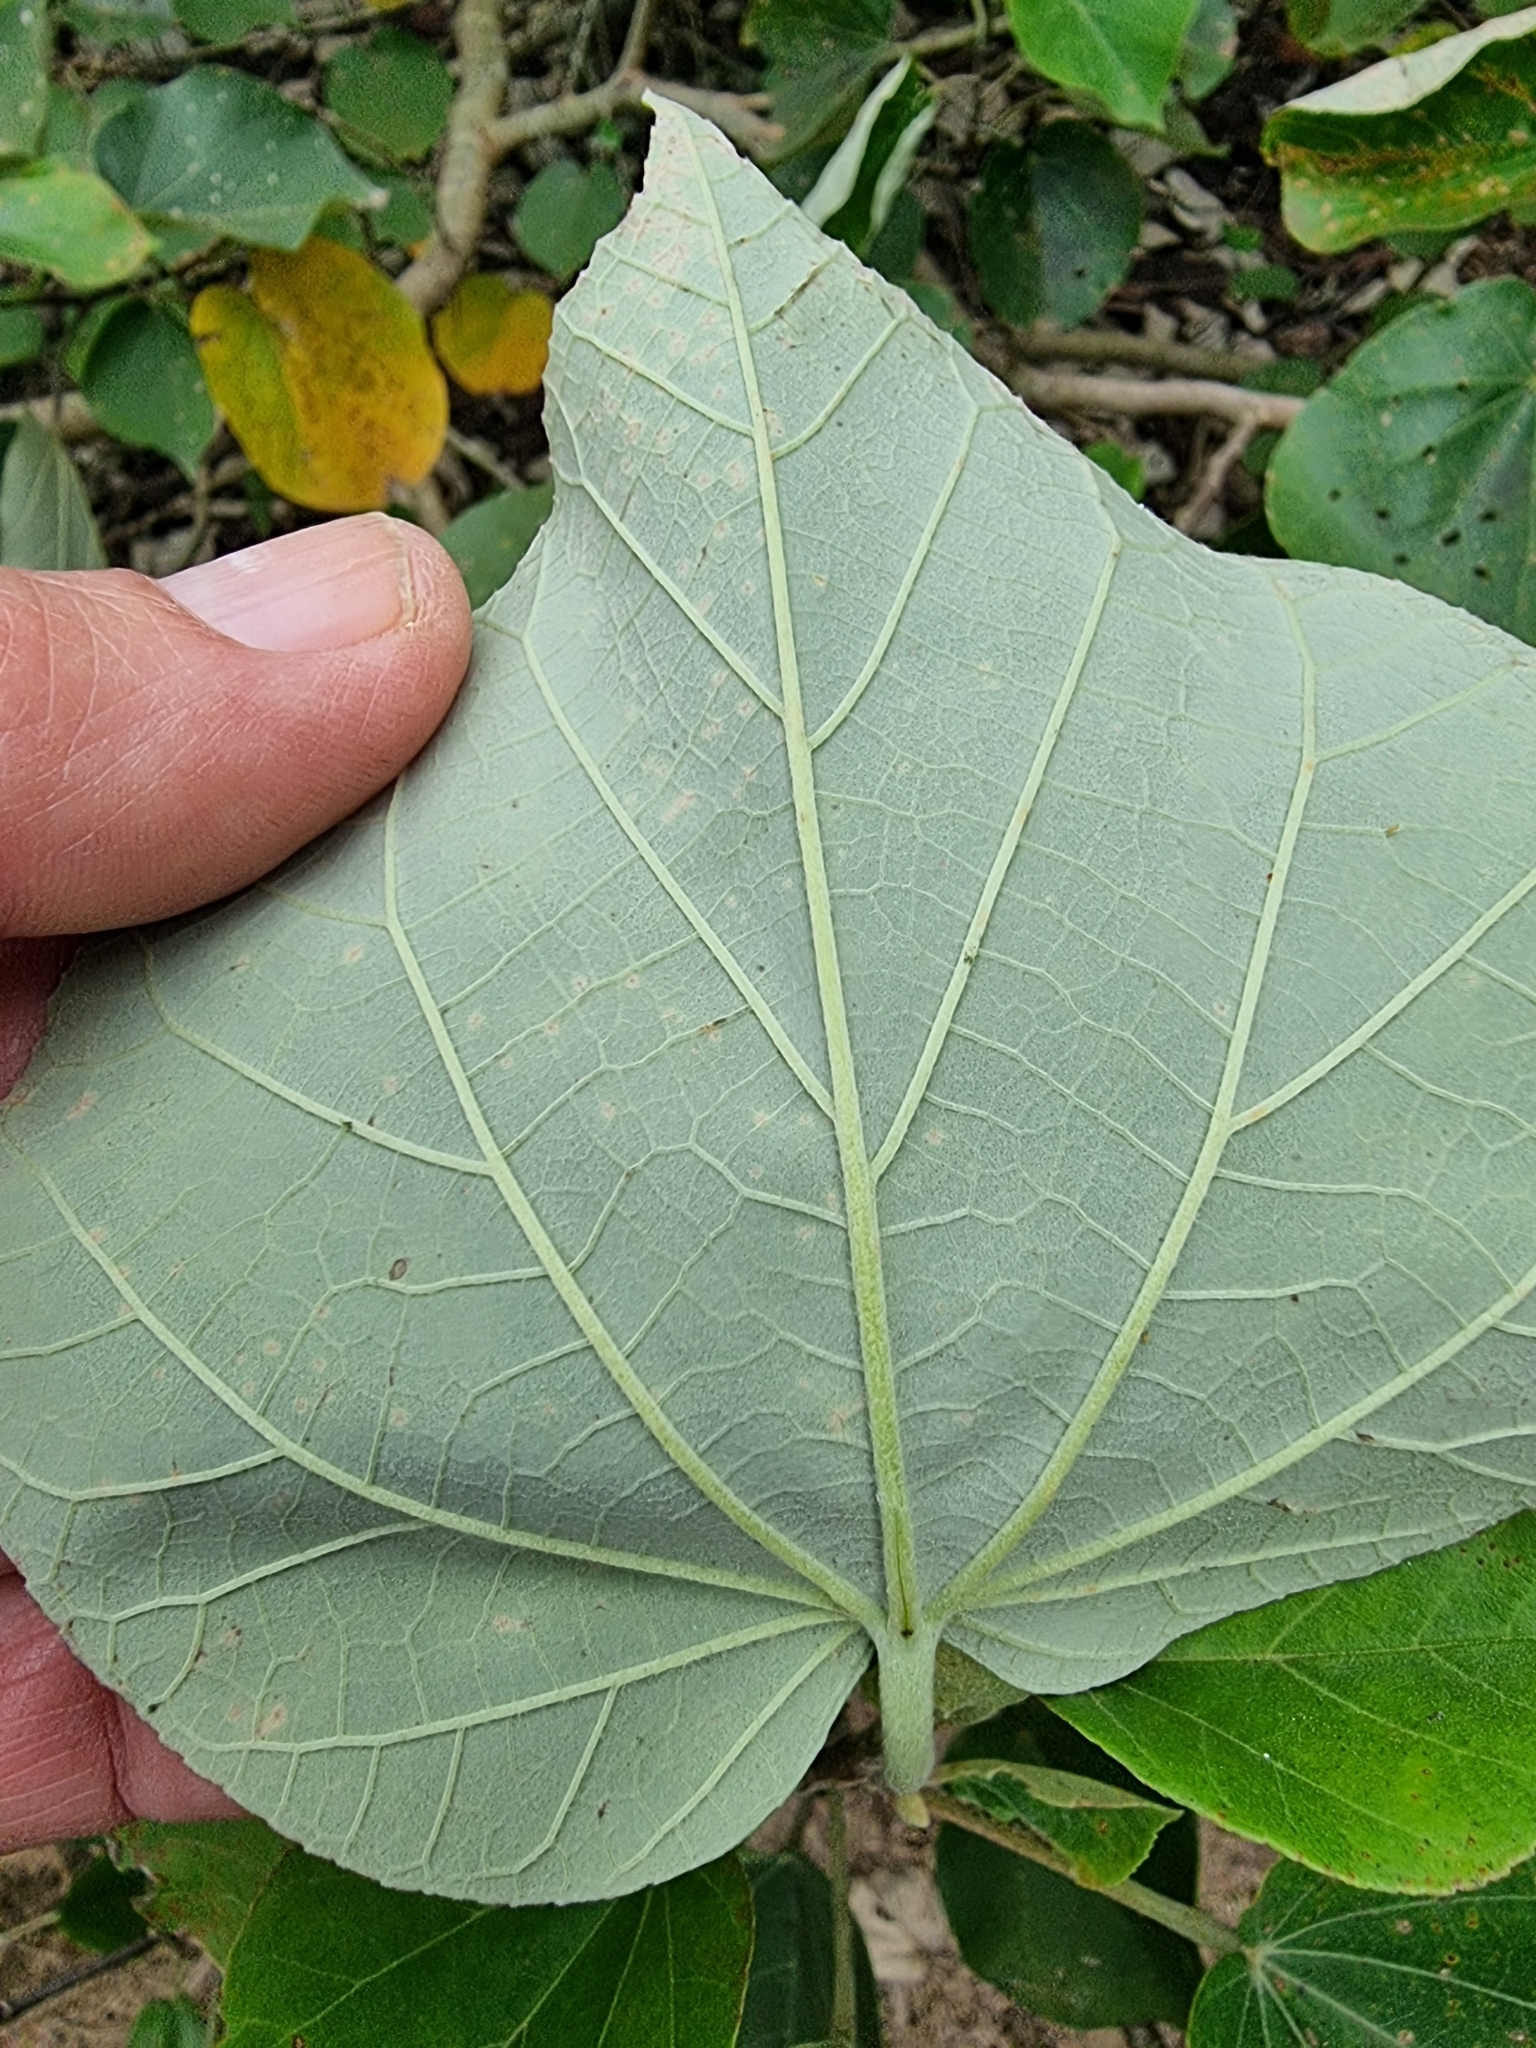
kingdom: Plantae
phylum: Tracheophyta
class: Magnoliopsida
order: Malvales
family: Malvaceae
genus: Talipariti
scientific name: Talipariti tiliaceum
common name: Sea hibiscus
